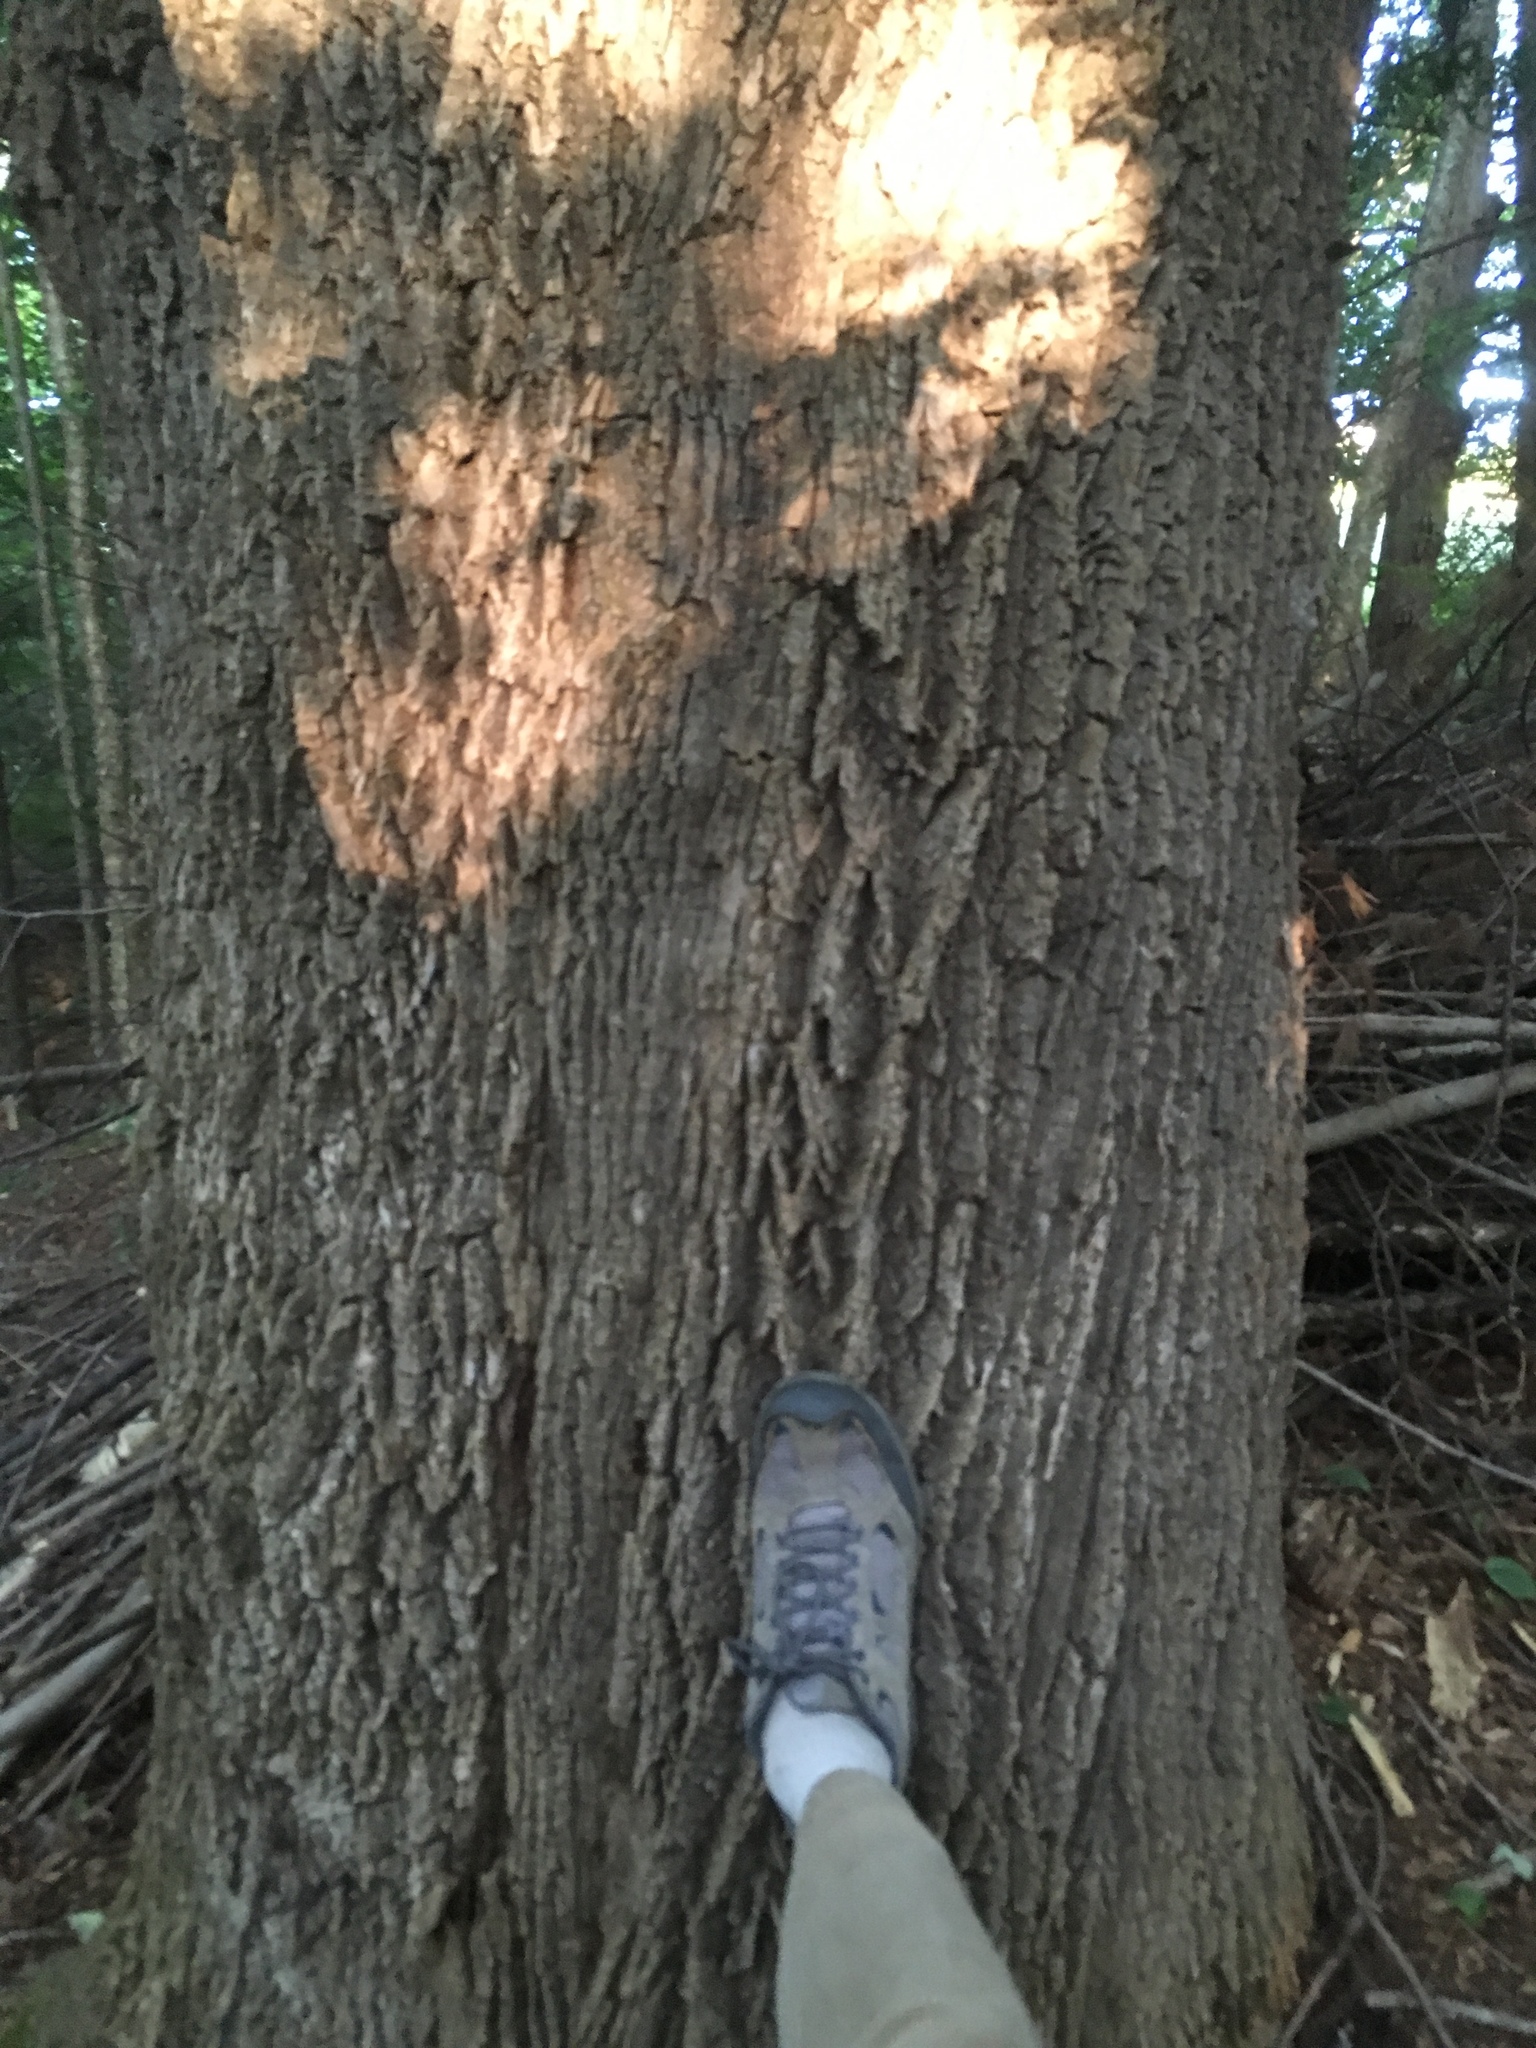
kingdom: Plantae
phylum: Tracheophyta
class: Magnoliopsida
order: Lamiales
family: Oleaceae
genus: Fraxinus
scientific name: Fraxinus americana
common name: White ash
